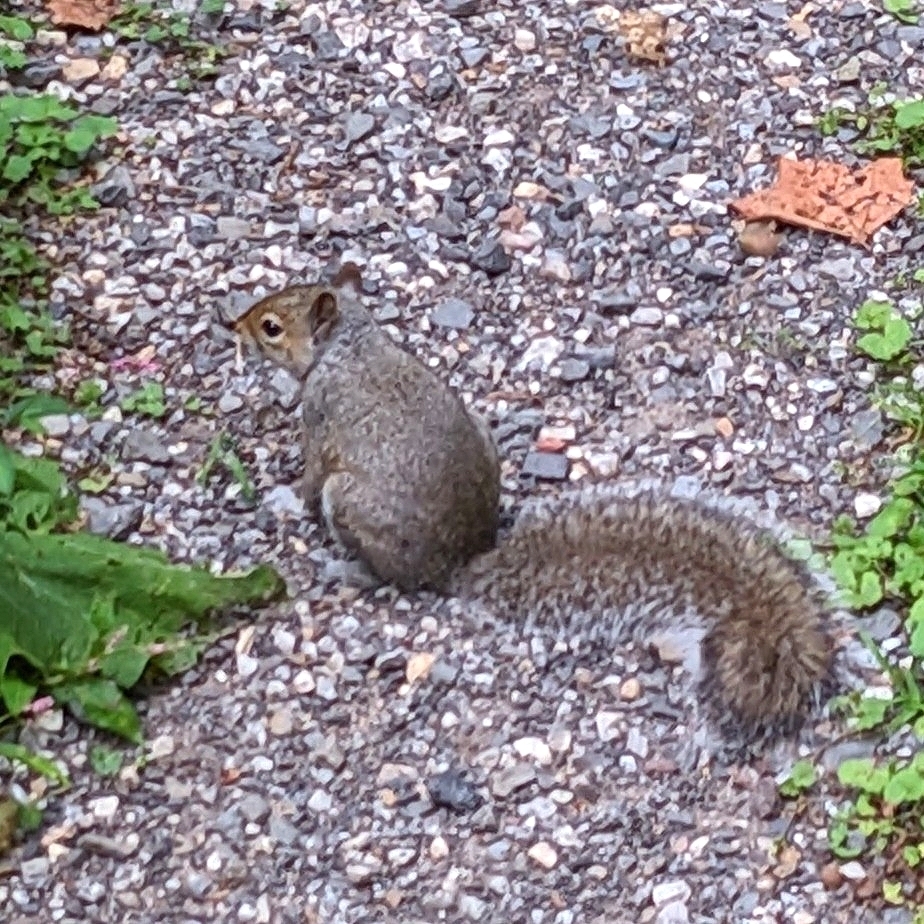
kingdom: Animalia
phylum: Chordata
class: Mammalia
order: Rodentia
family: Sciuridae
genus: Sciurus
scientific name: Sciurus carolinensis
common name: Eastern gray squirrel
